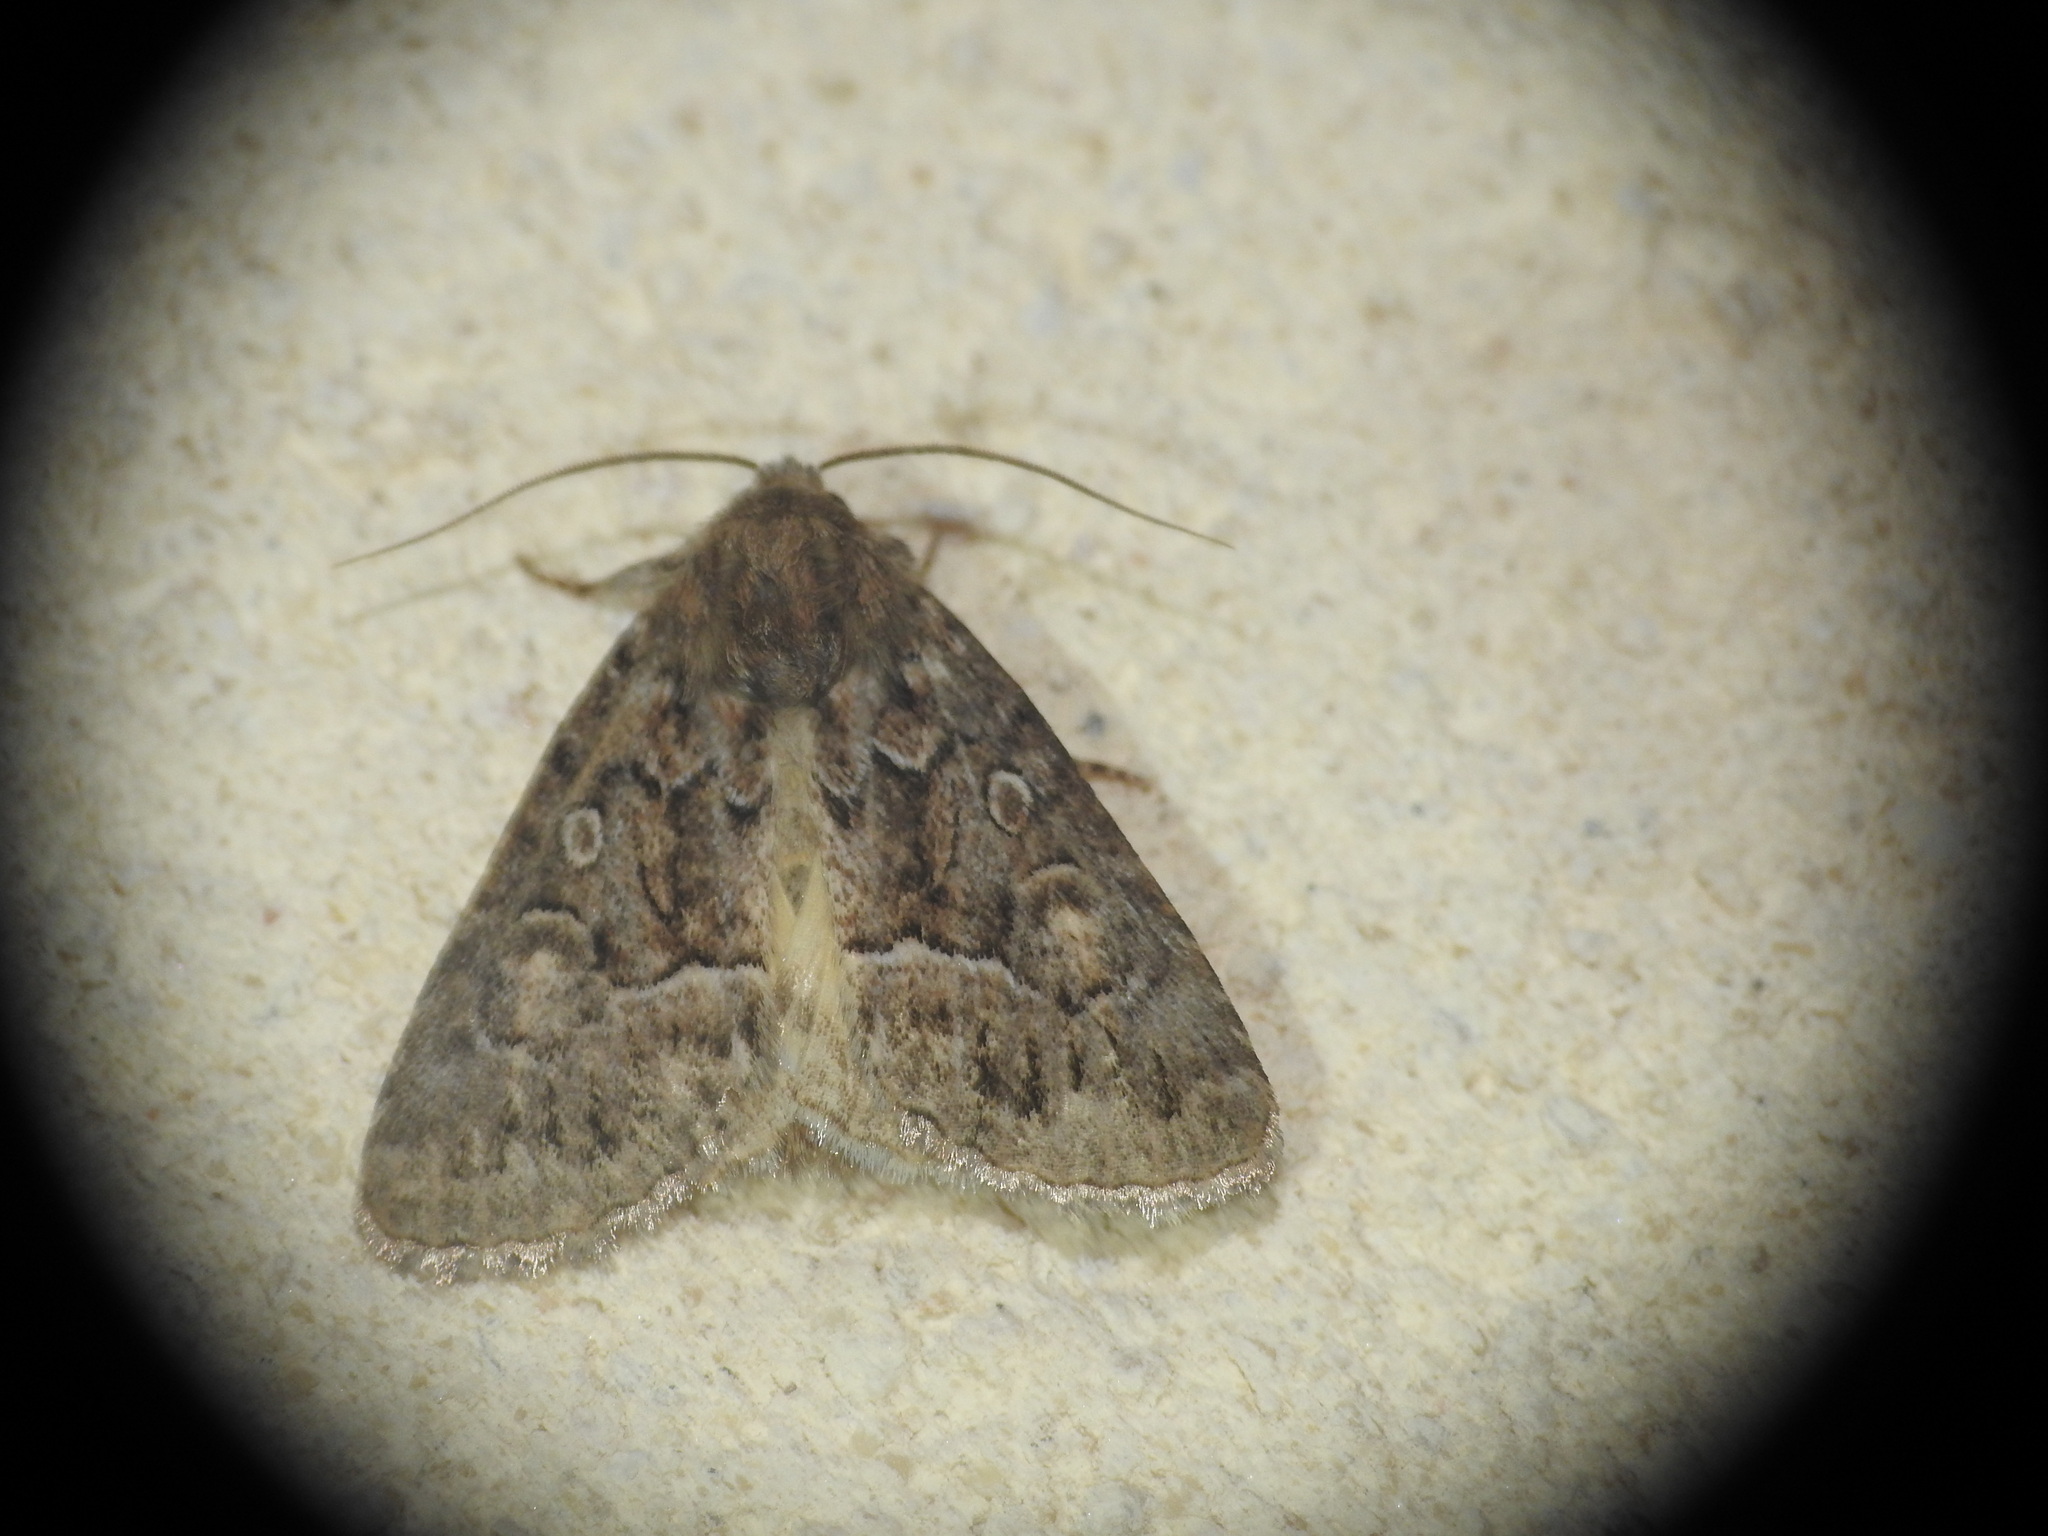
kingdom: Animalia
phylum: Arthropoda
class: Insecta
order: Lepidoptera
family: Noctuidae
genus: Thalpophila
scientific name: Thalpophila matura
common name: Straw underwing
